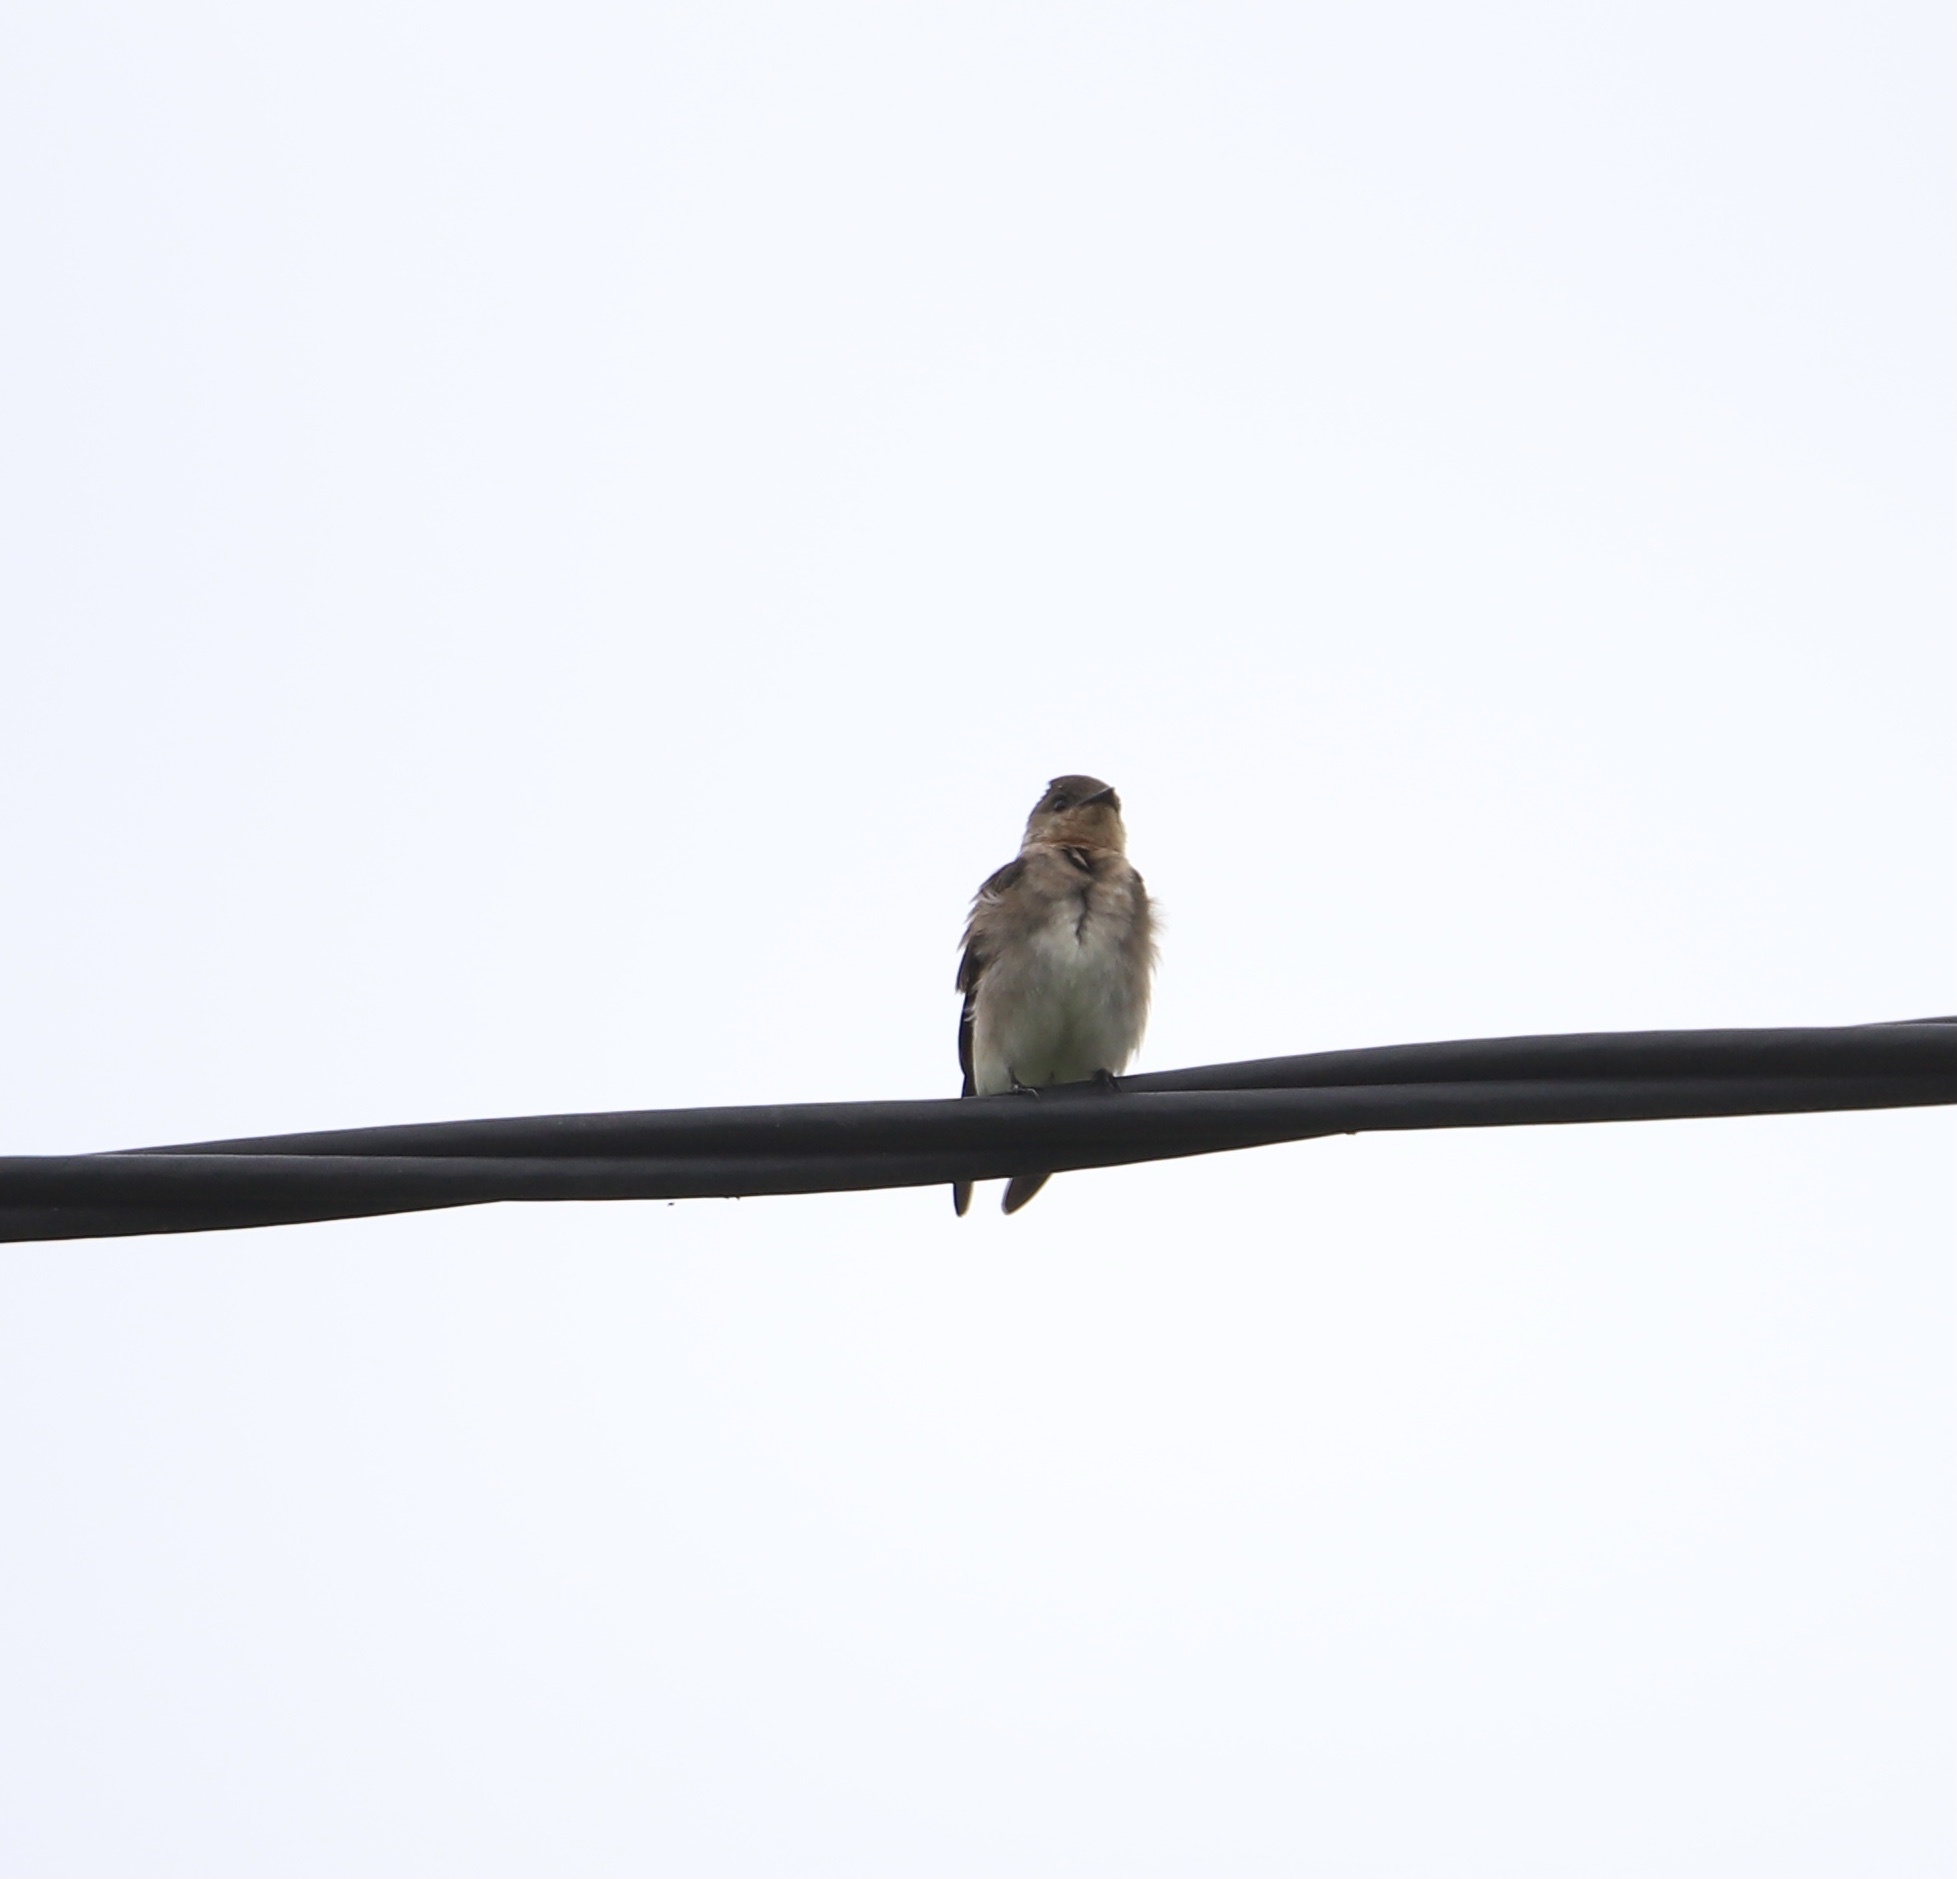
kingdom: Animalia
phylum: Chordata
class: Aves
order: Passeriformes
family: Hirundinidae
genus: Stelgidopteryx
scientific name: Stelgidopteryx ruficollis
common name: Southern rough-winged swallow
